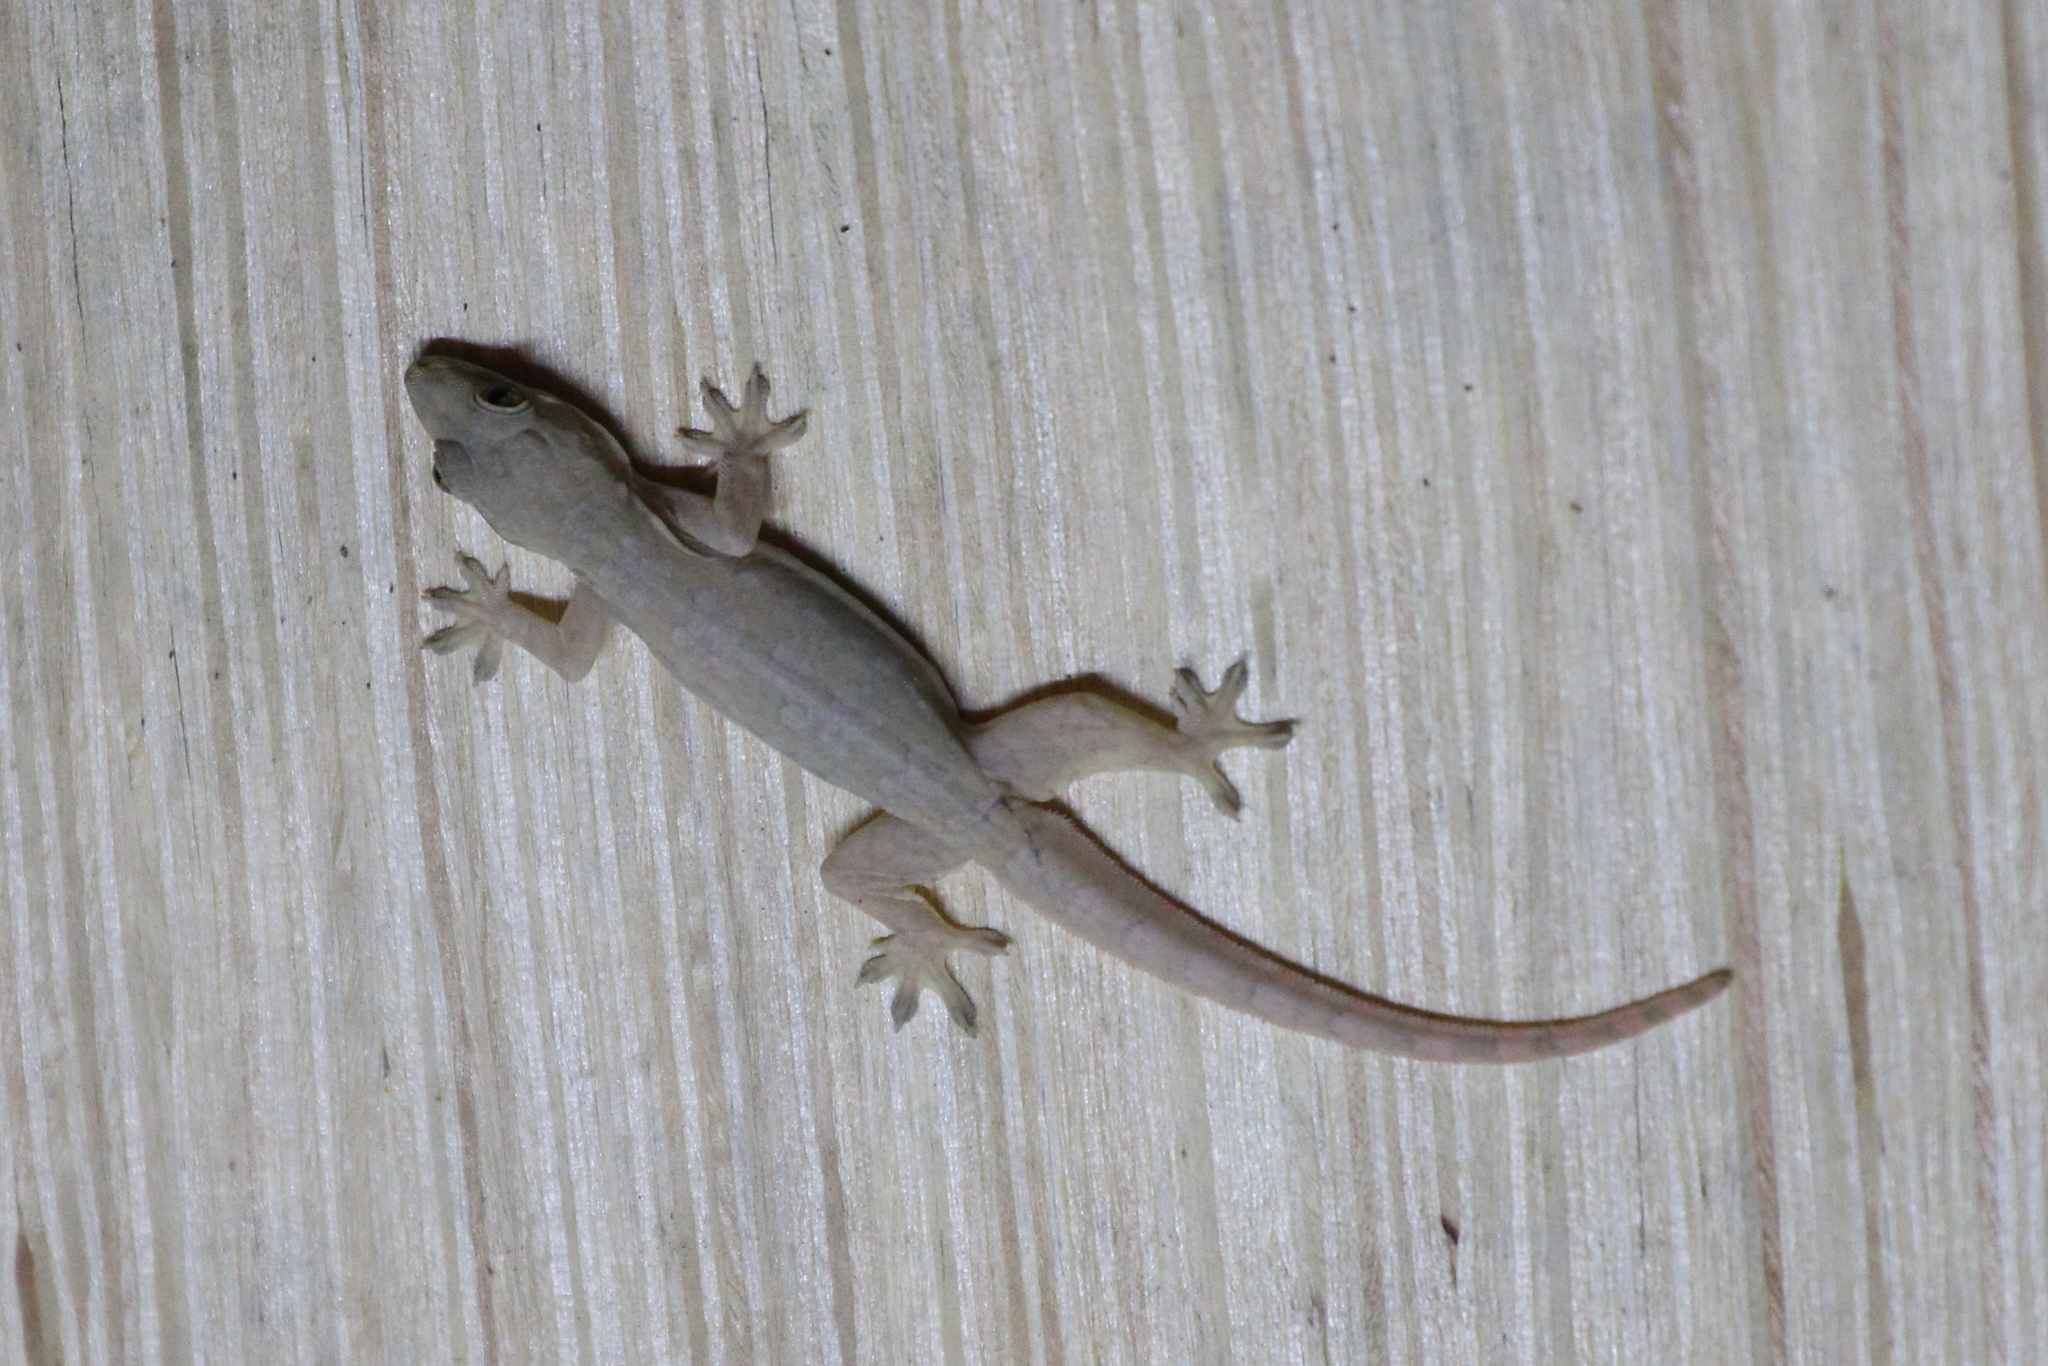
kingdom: Animalia
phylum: Chordata
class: Squamata
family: Gekkonidae
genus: Hemidactylus
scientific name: Hemidactylus platyurus
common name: Flat-tailed house gecko
